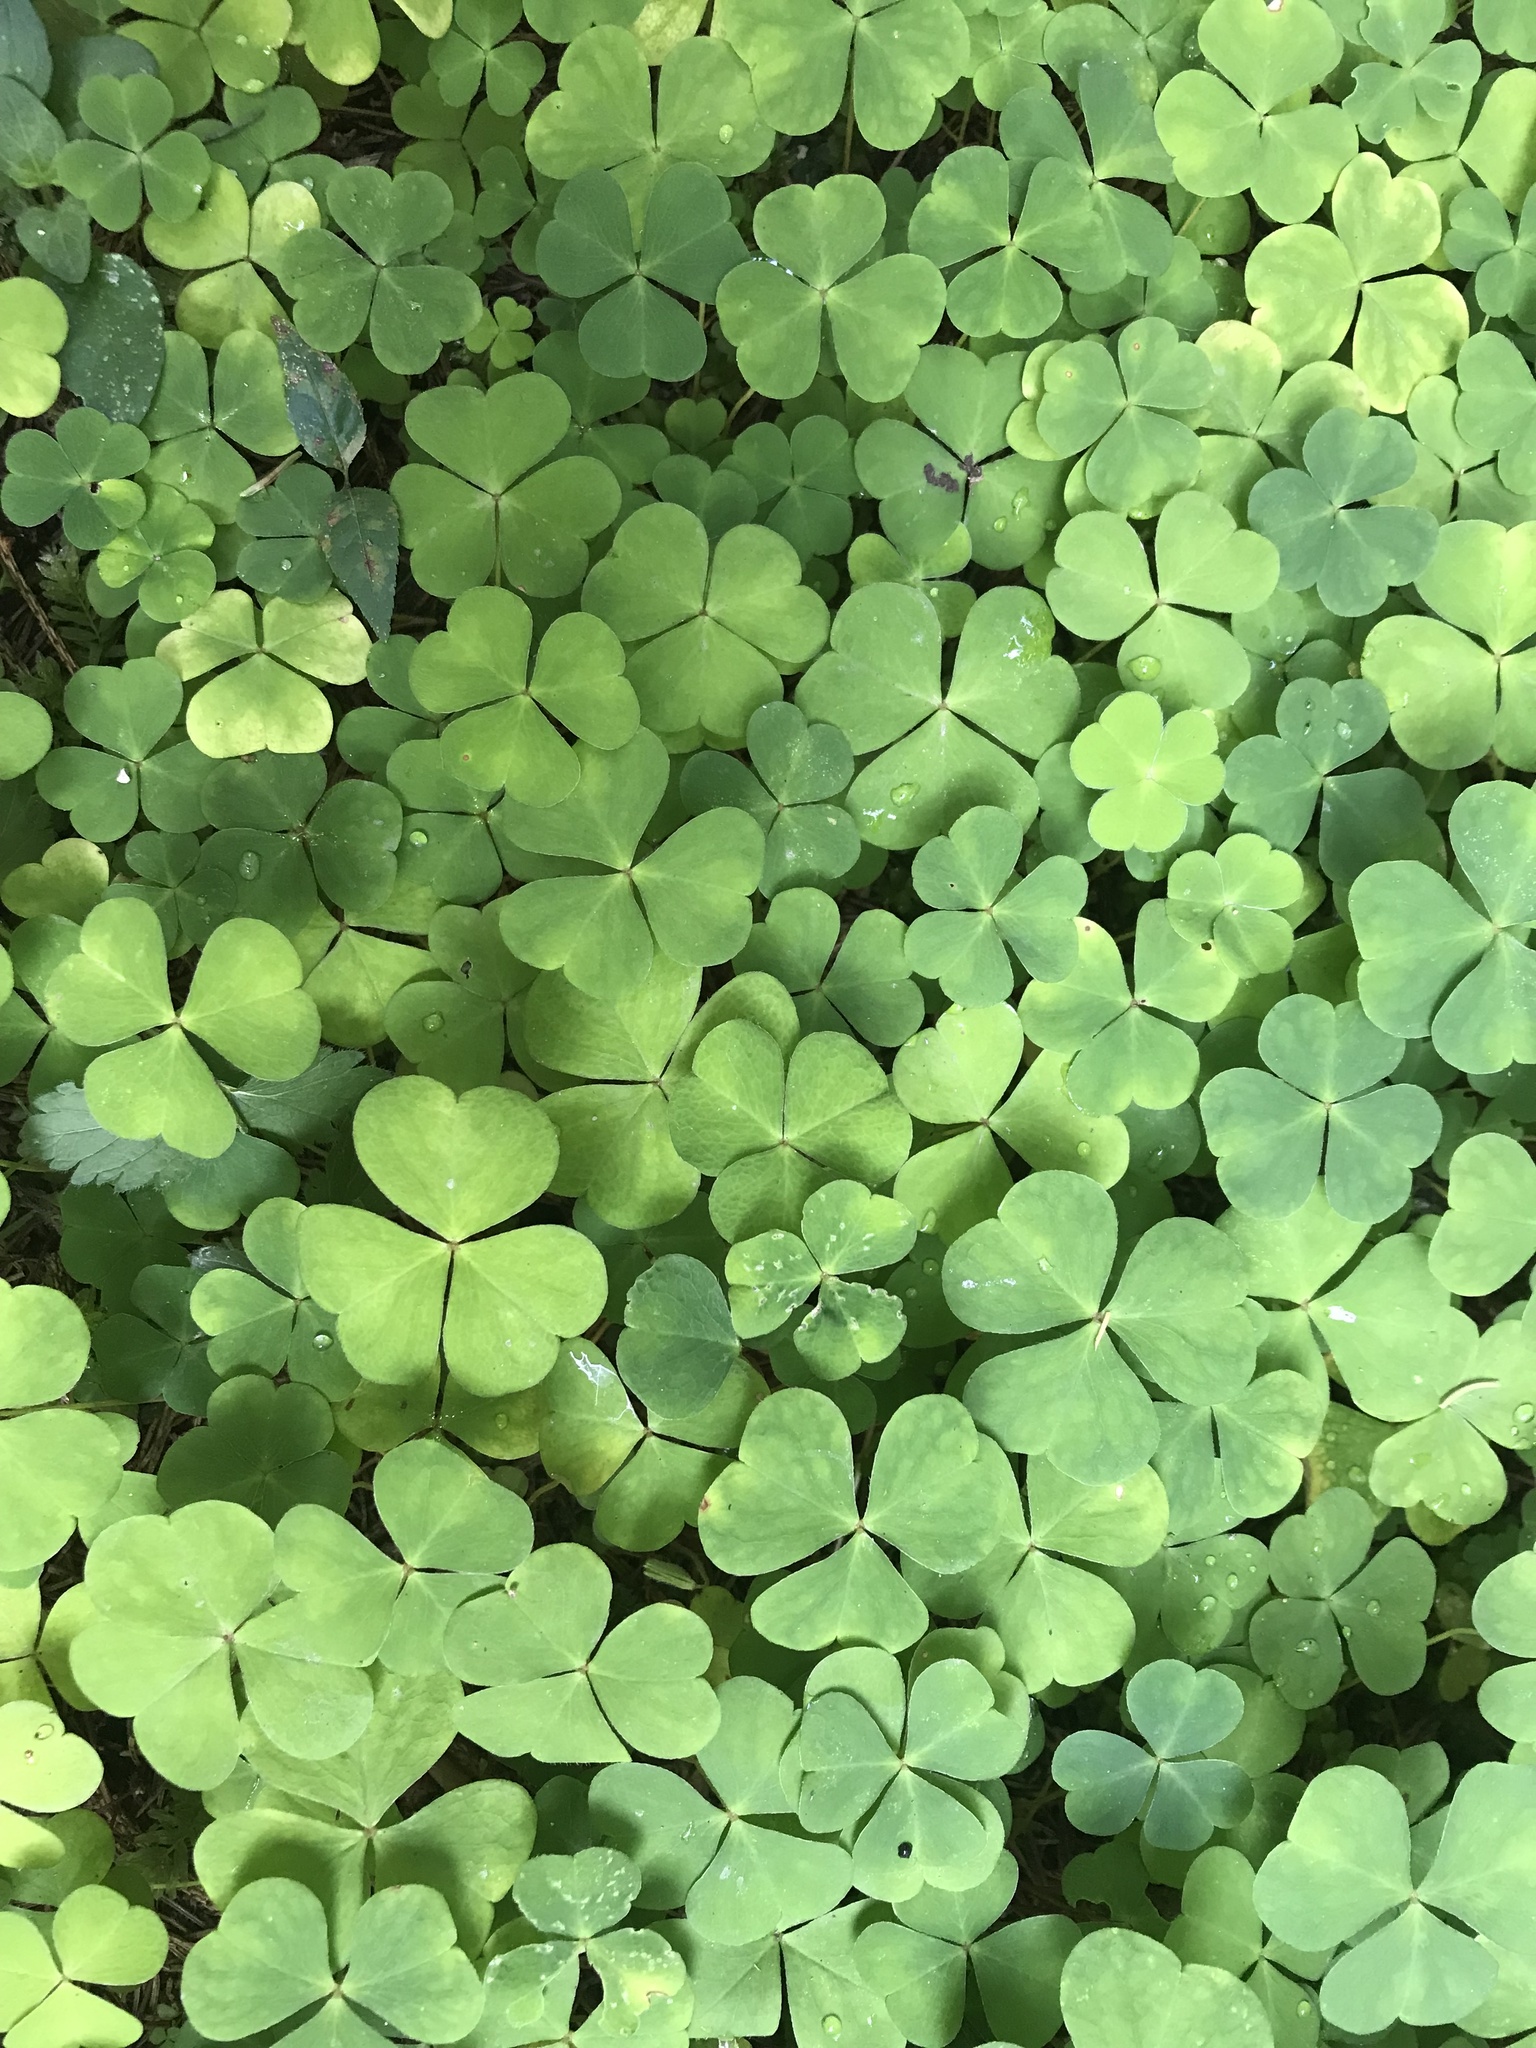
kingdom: Plantae
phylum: Tracheophyta
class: Magnoliopsida
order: Oxalidales
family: Oxalidaceae
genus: Oxalis
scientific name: Oxalis acetosella
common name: Wood-sorrel
